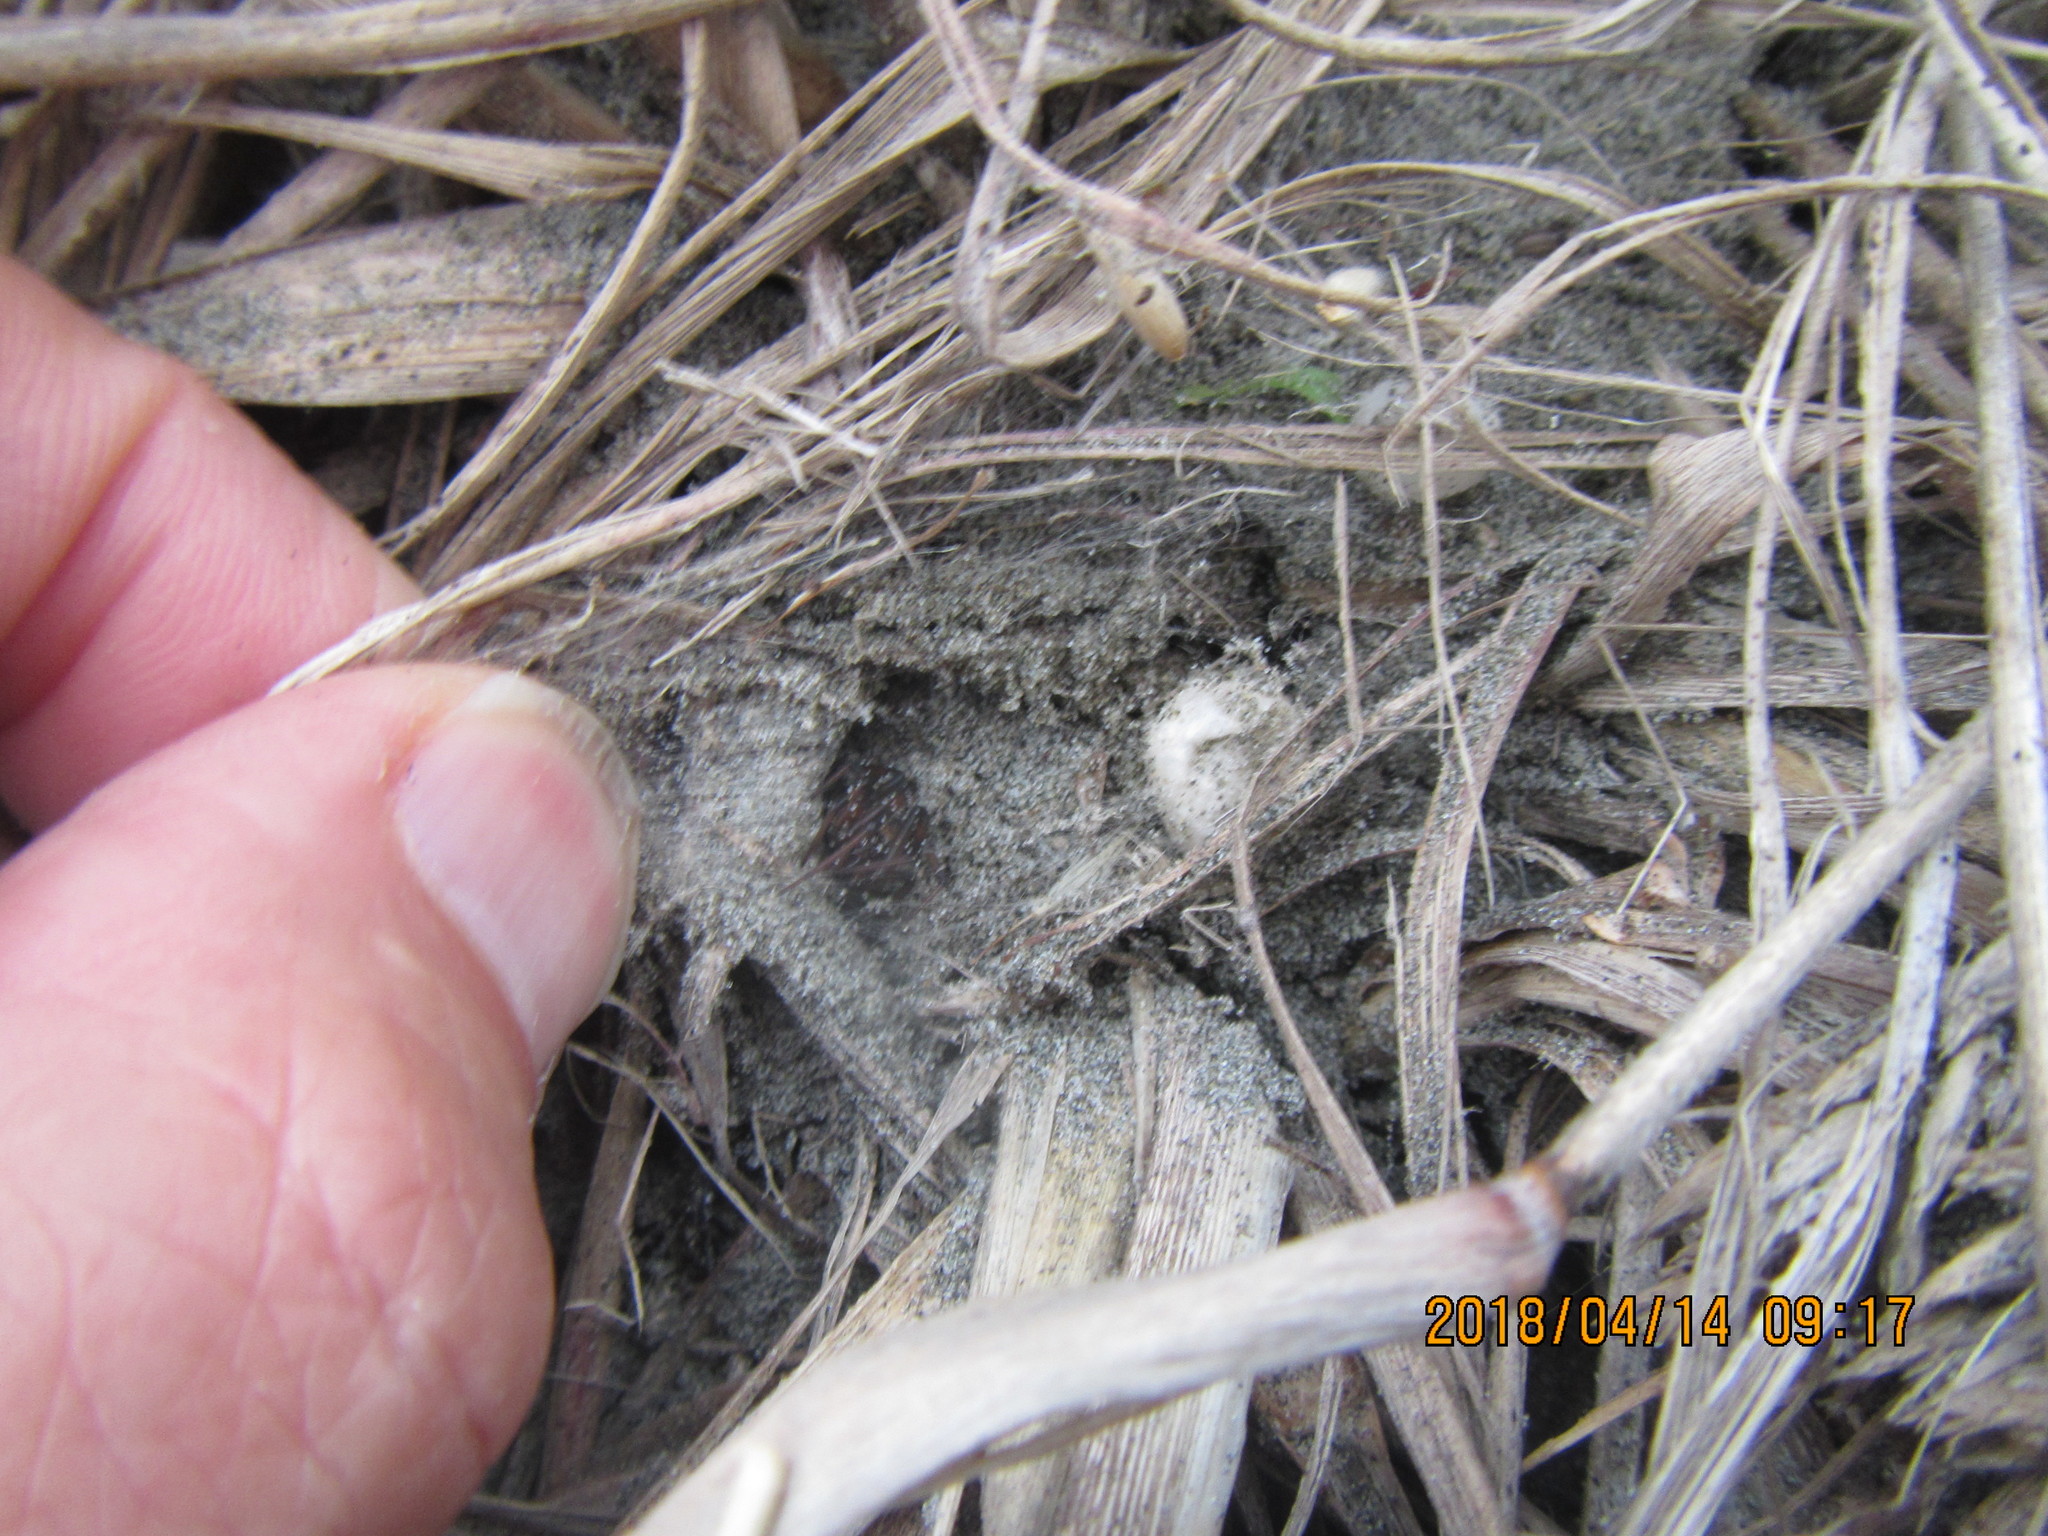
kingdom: Animalia
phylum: Arthropoda
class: Arachnida
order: Araneae
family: Theridiidae
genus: Latrodectus
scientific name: Latrodectus katipo
